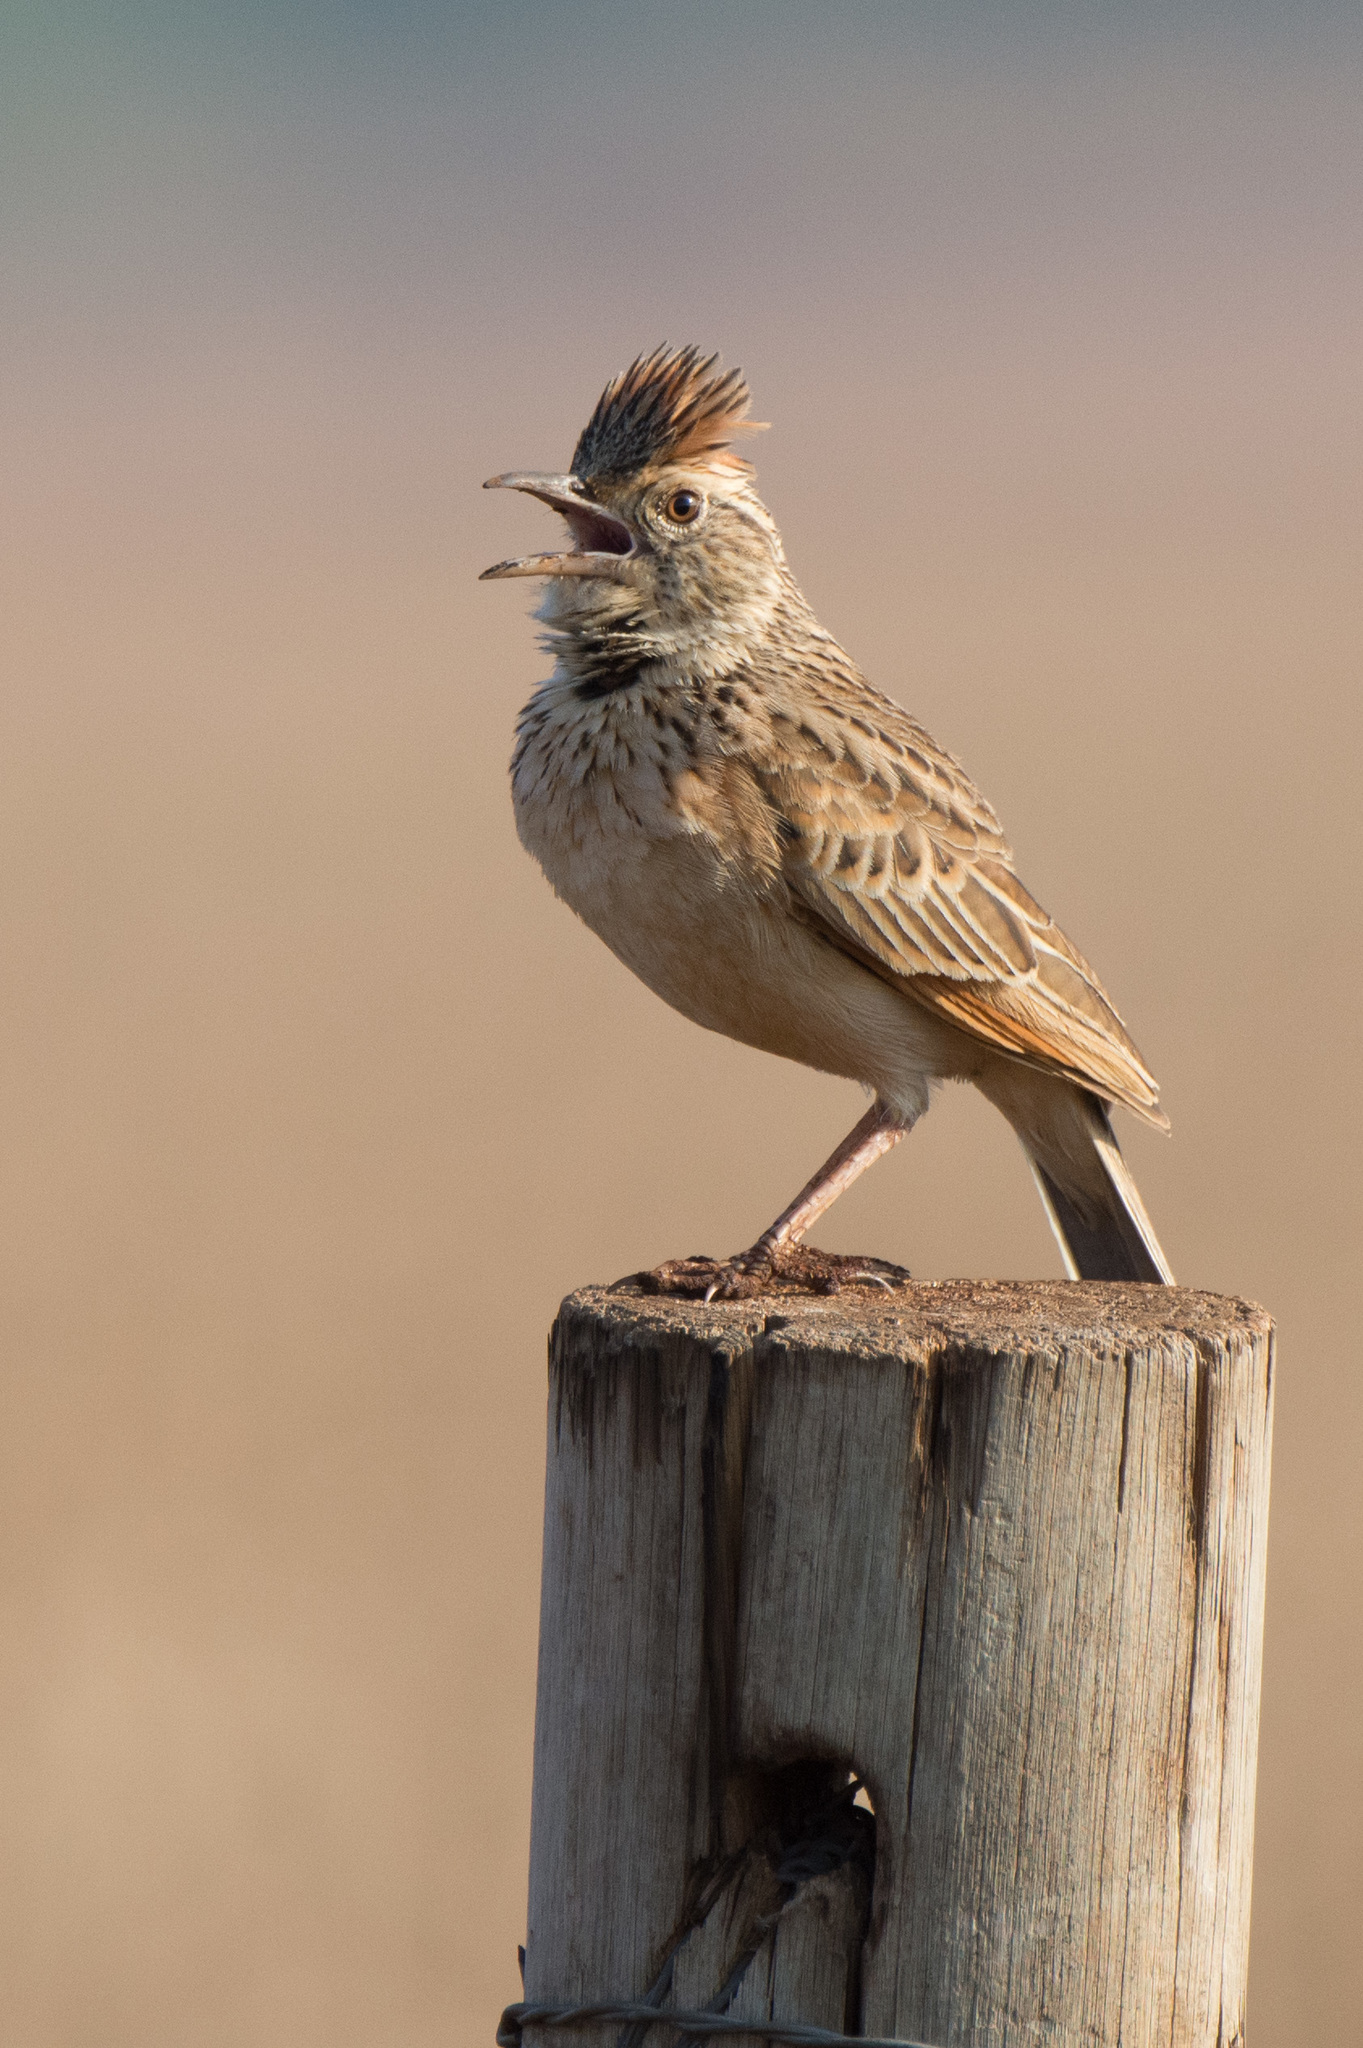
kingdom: Animalia
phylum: Chordata
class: Aves
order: Passeriformes
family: Alaudidae
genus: Mirafra
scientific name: Mirafra africana
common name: Rufous-naped lark
